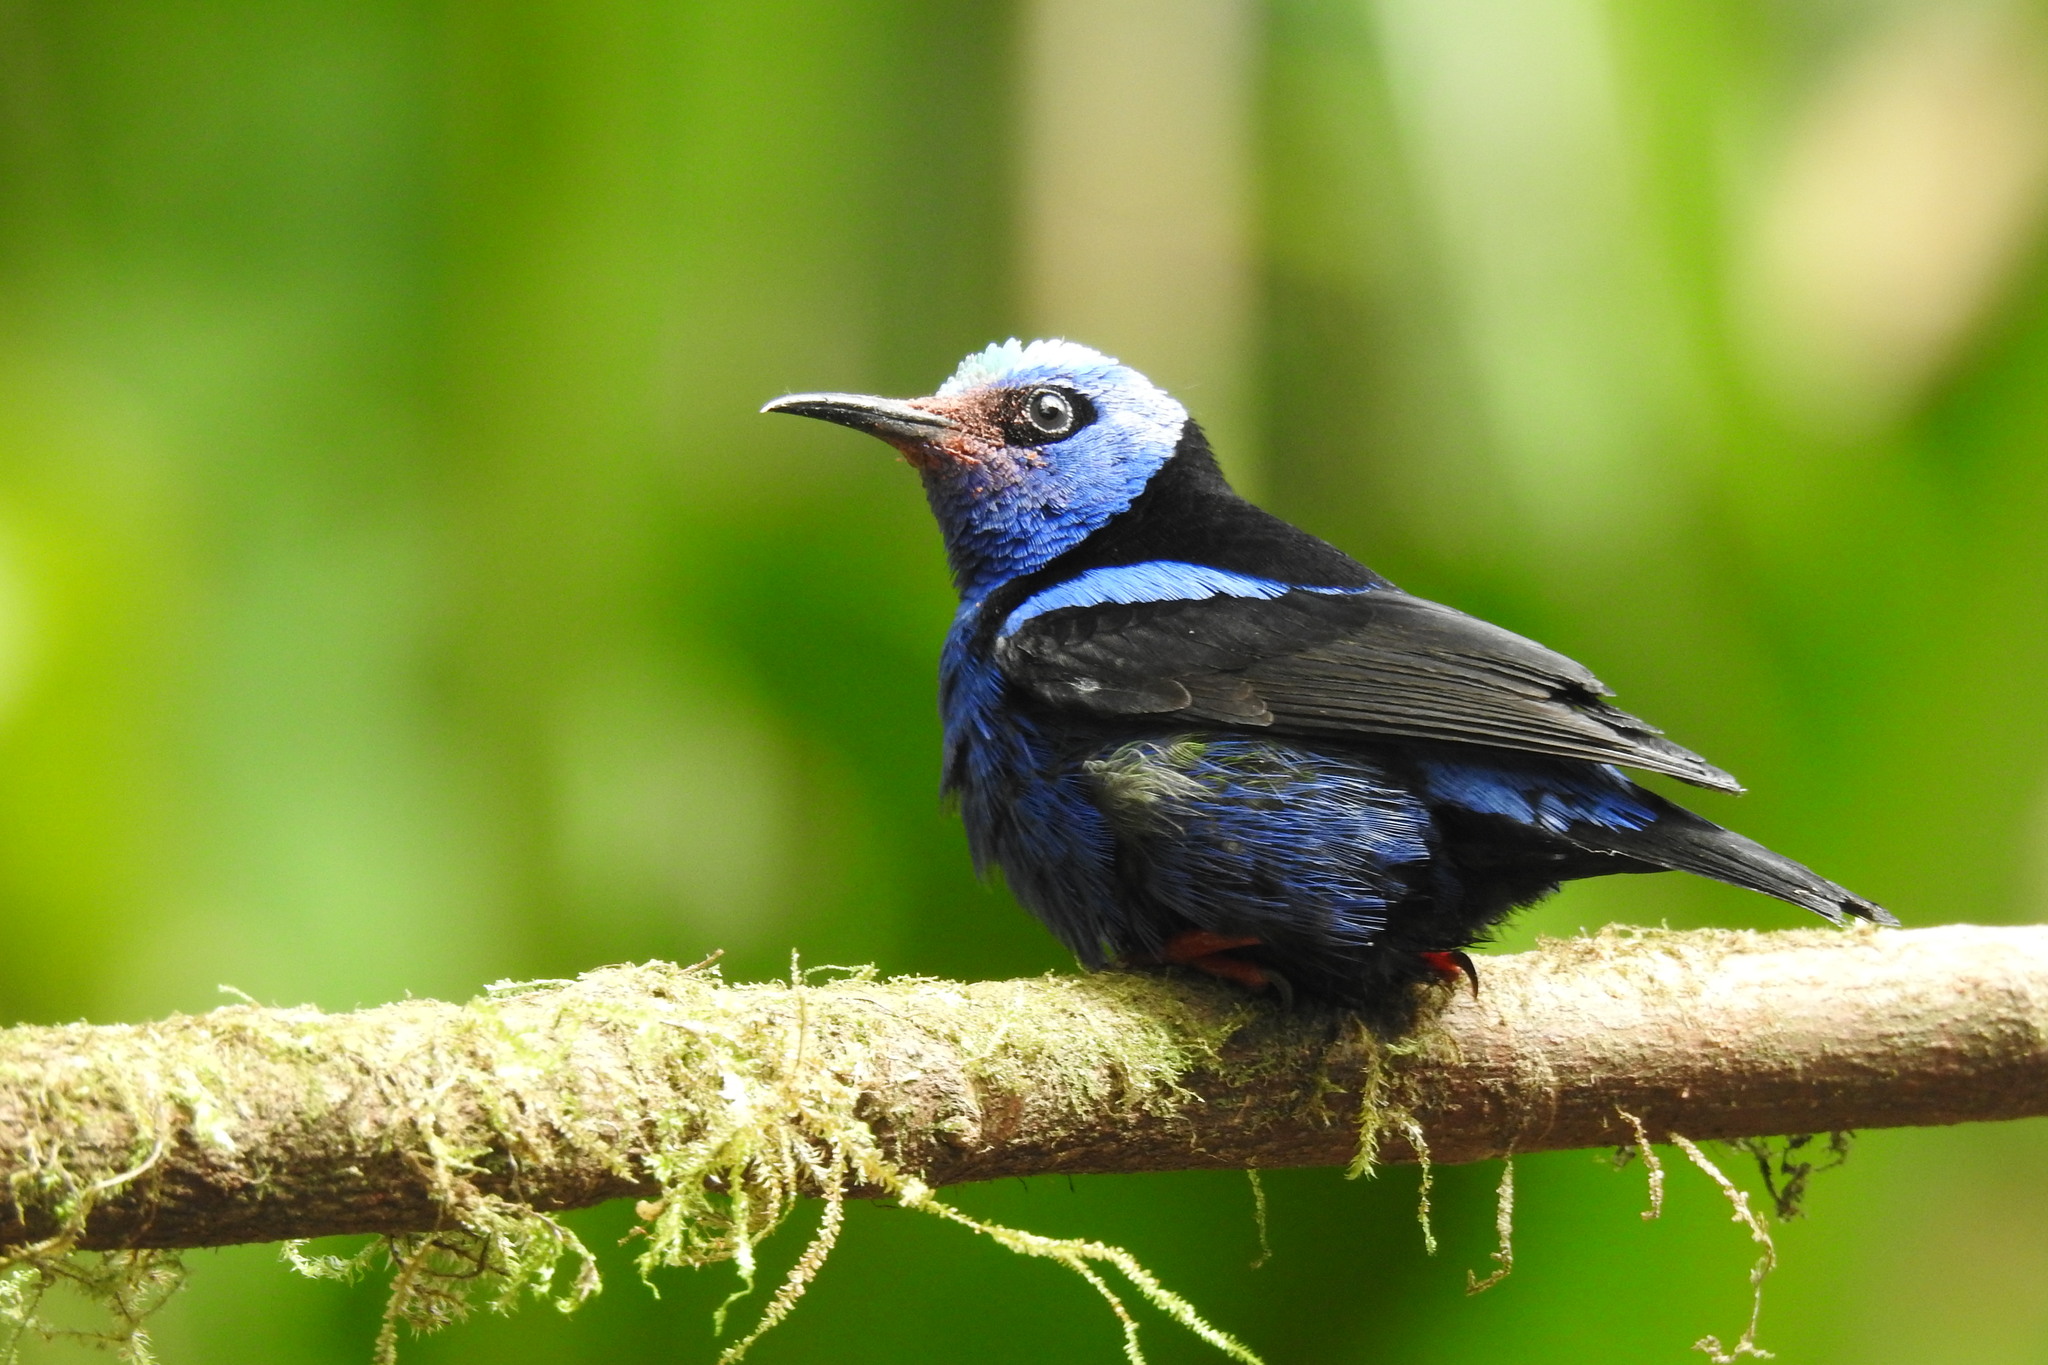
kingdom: Animalia
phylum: Chordata
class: Aves
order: Passeriformes
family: Thraupidae
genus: Cyanerpes
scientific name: Cyanerpes cyaneus
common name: Red-legged honeycreeper
